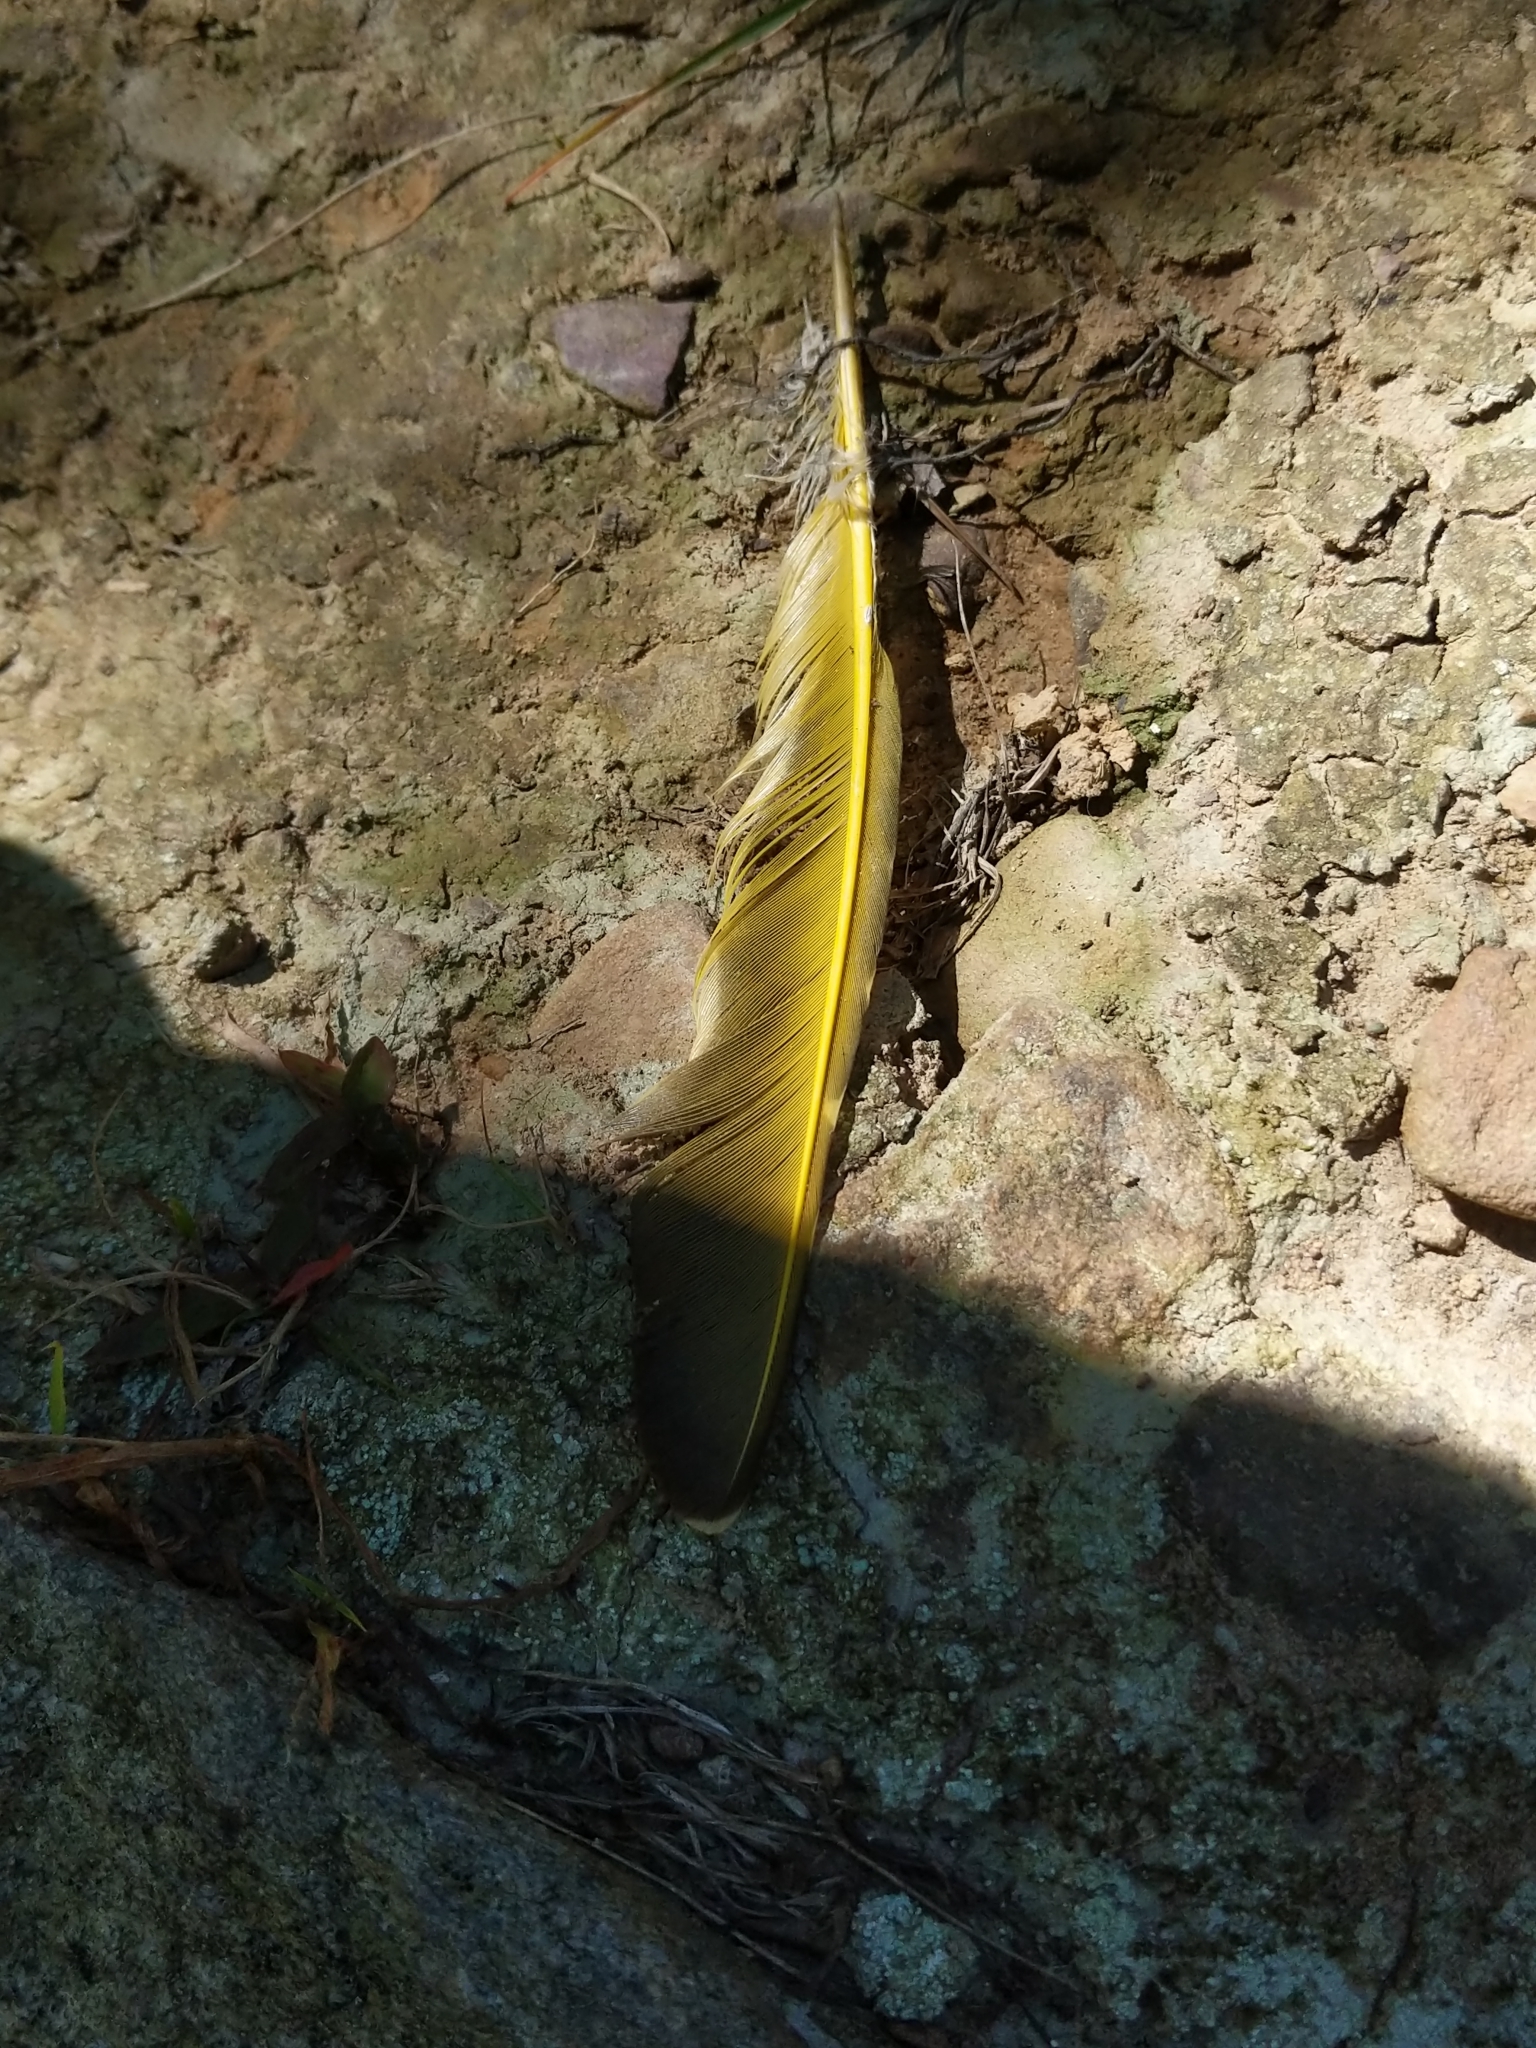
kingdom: Animalia
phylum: Chordata
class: Aves
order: Piciformes
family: Picidae
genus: Colaptes
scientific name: Colaptes auratus
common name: Northern flicker
